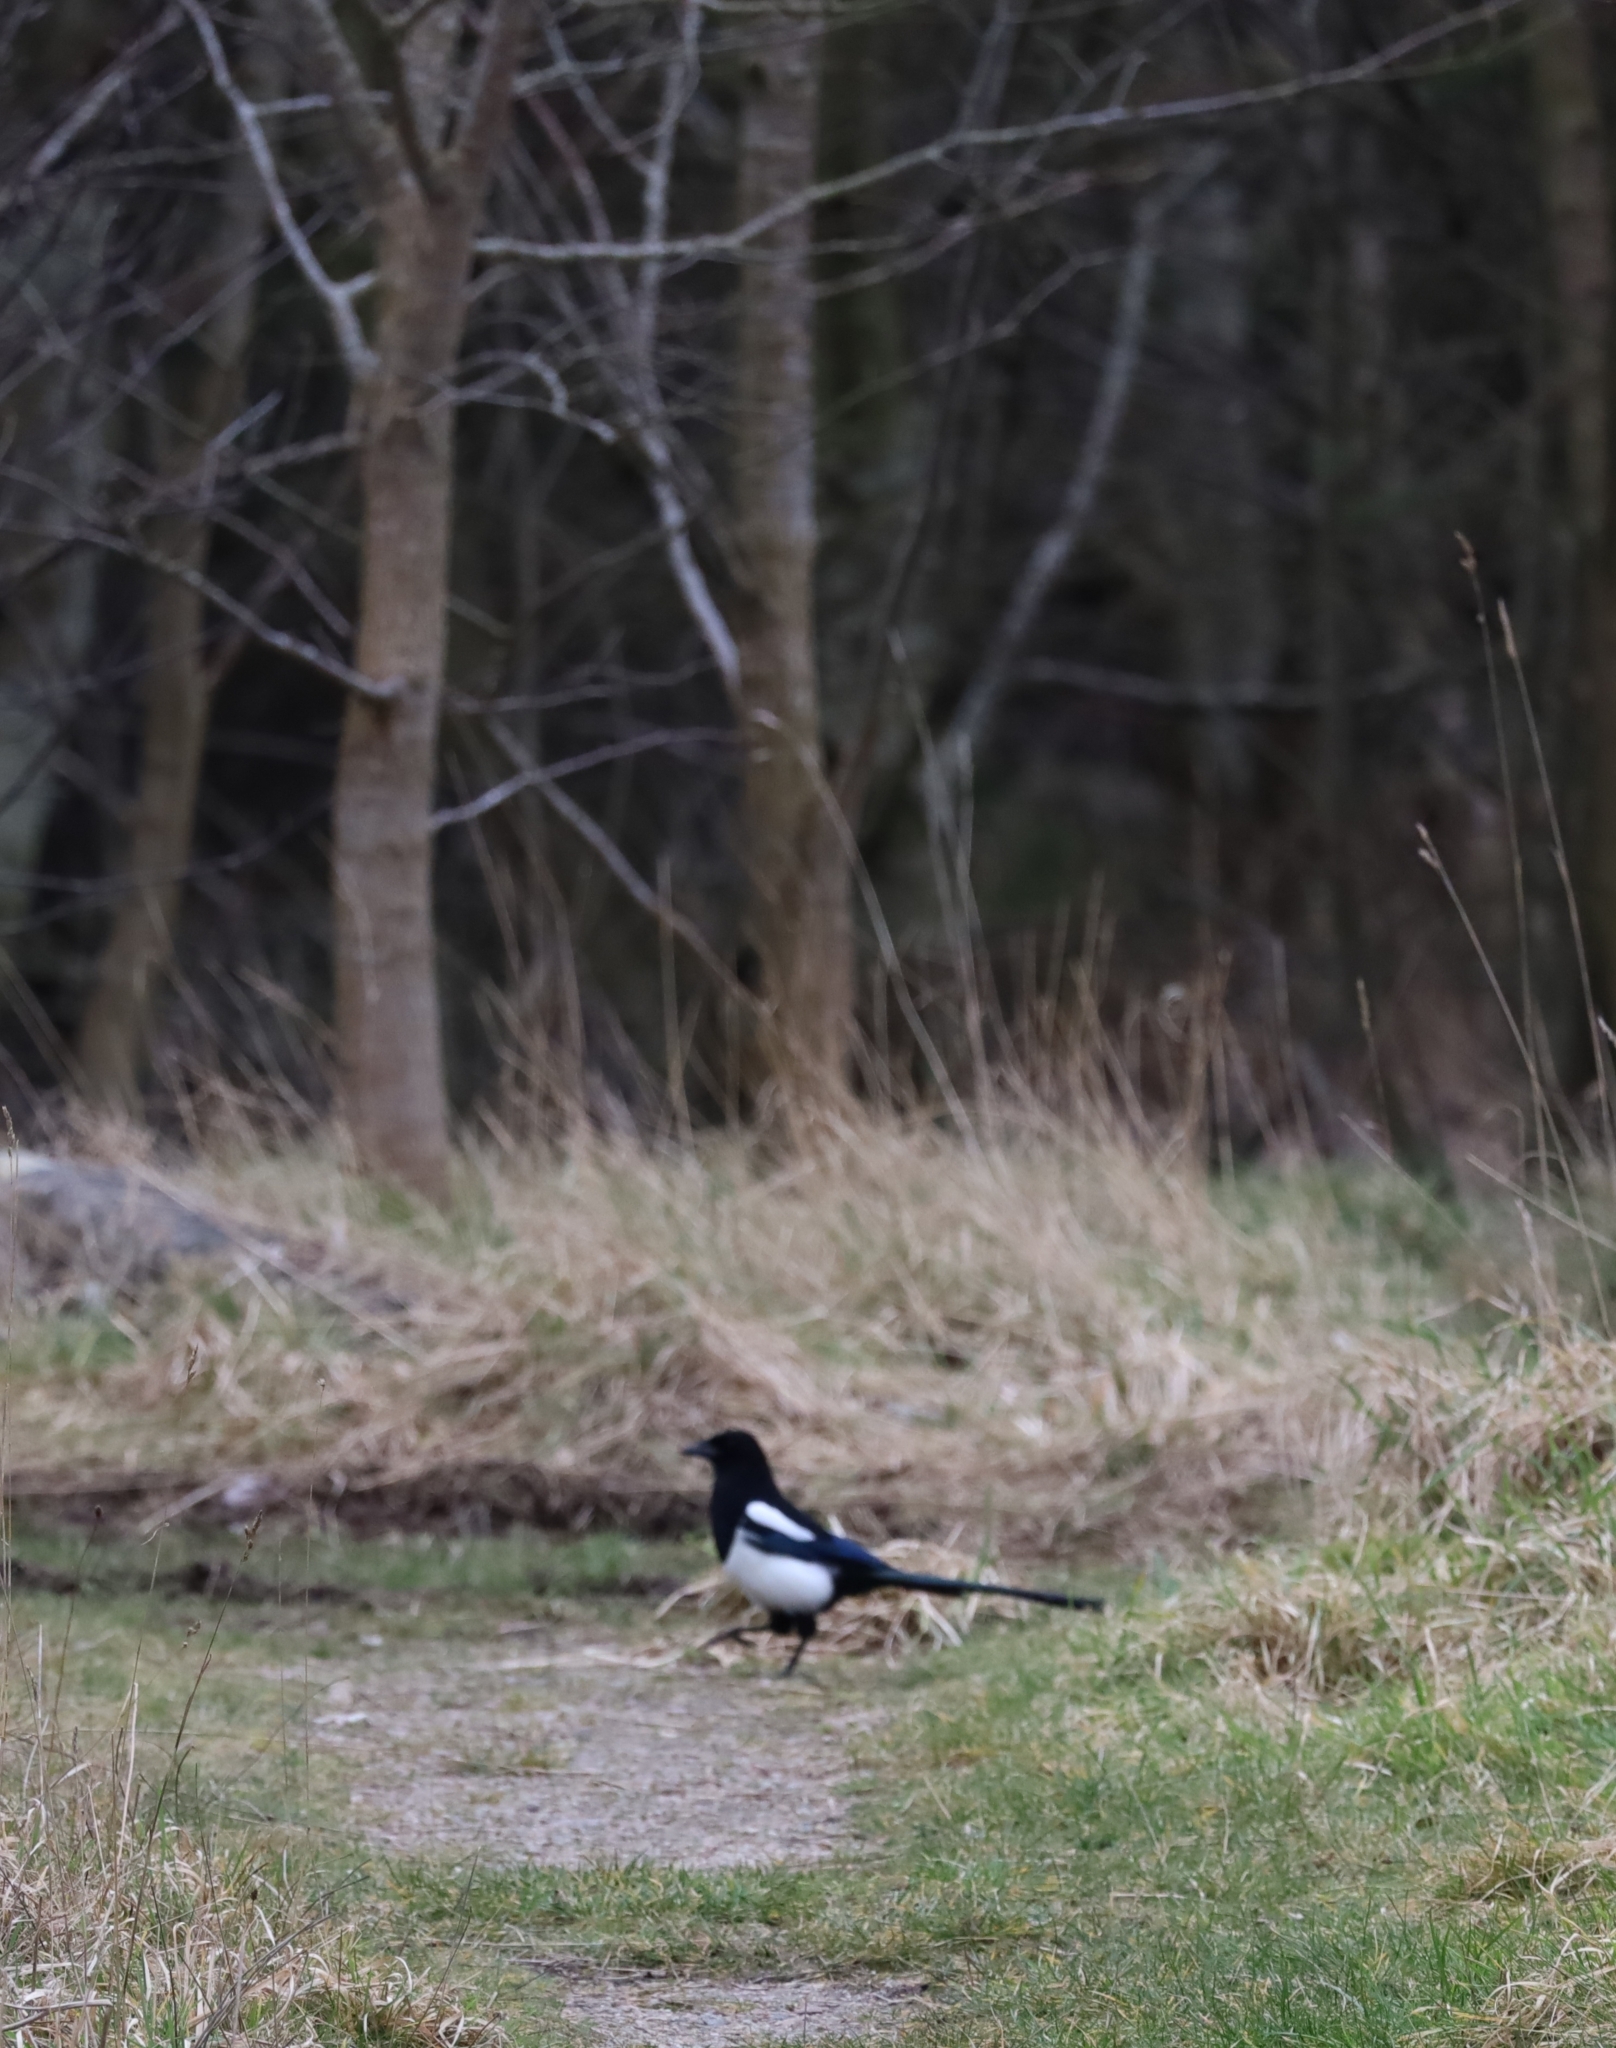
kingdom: Animalia
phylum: Chordata
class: Aves
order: Passeriformes
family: Corvidae
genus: Pica
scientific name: Pica pica
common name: Eurasian magpie
